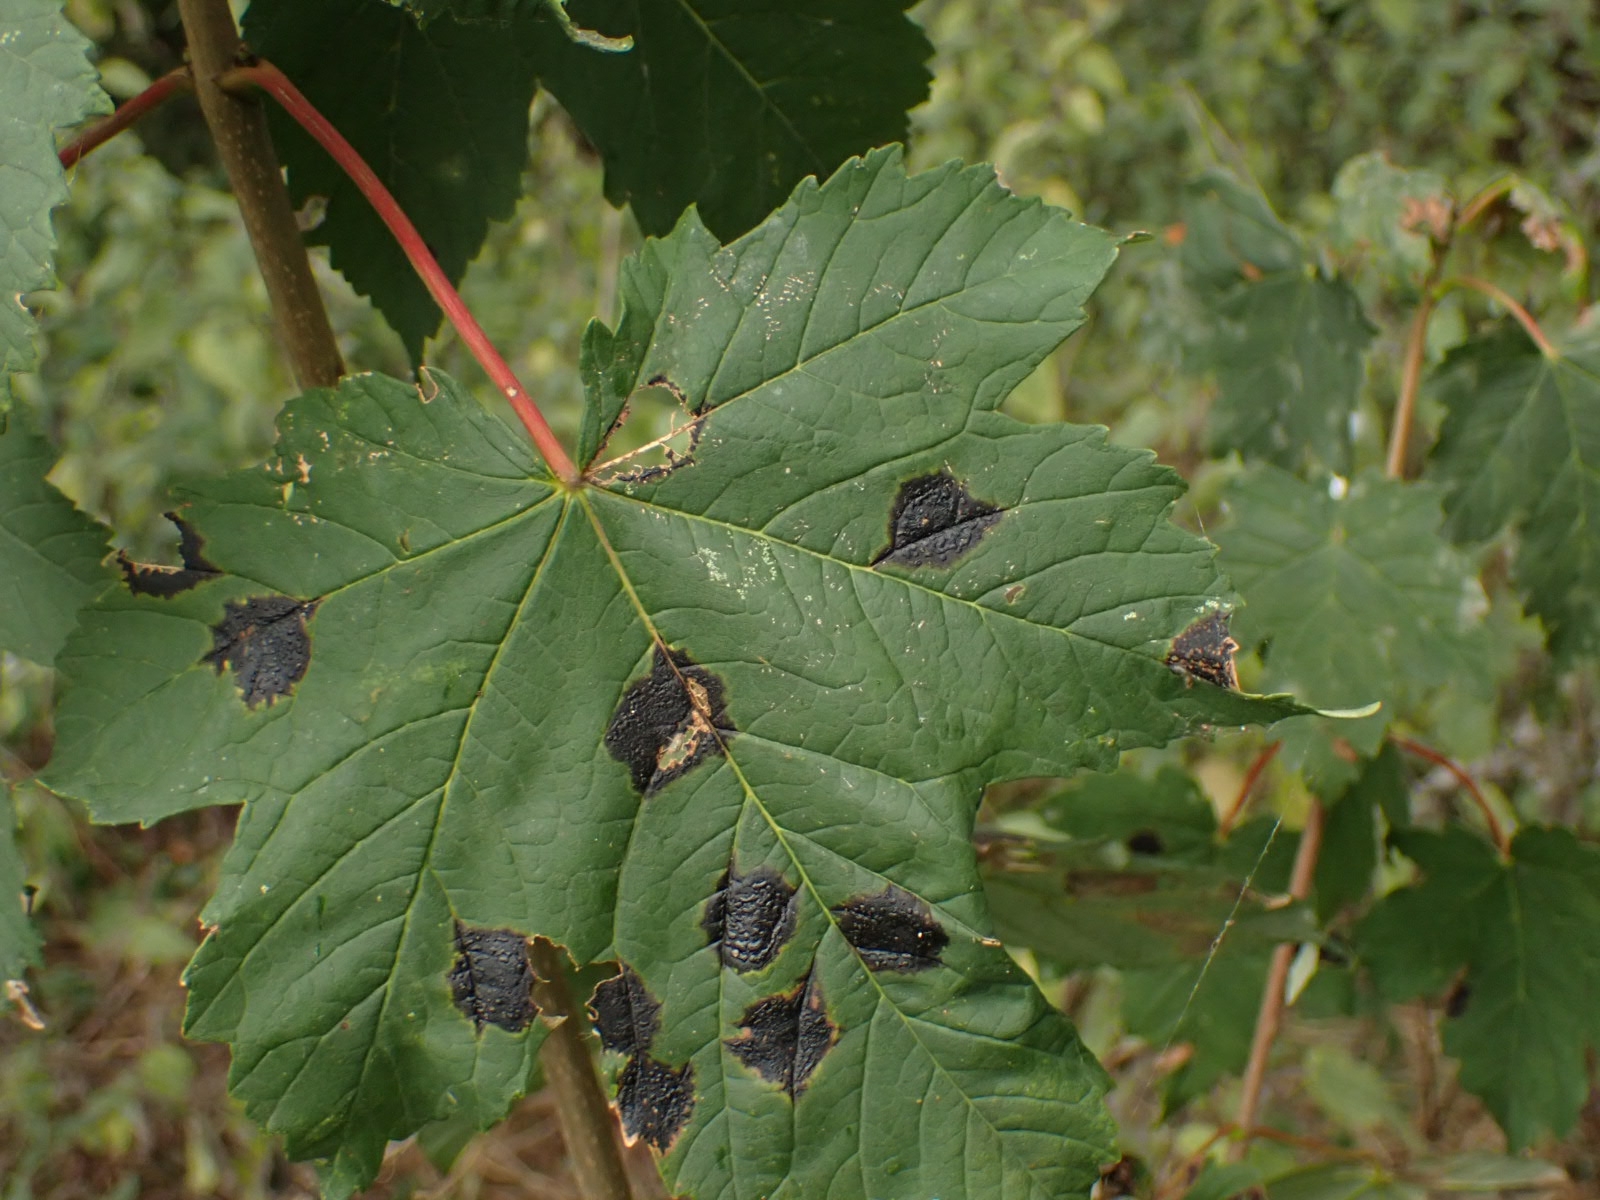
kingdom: Fungi
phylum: Ascomycota
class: Leotiomycetes
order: Rhytismatales
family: Rhytismataceae
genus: Rhytisma
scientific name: Rhytisma acerinum
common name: European tar spot
